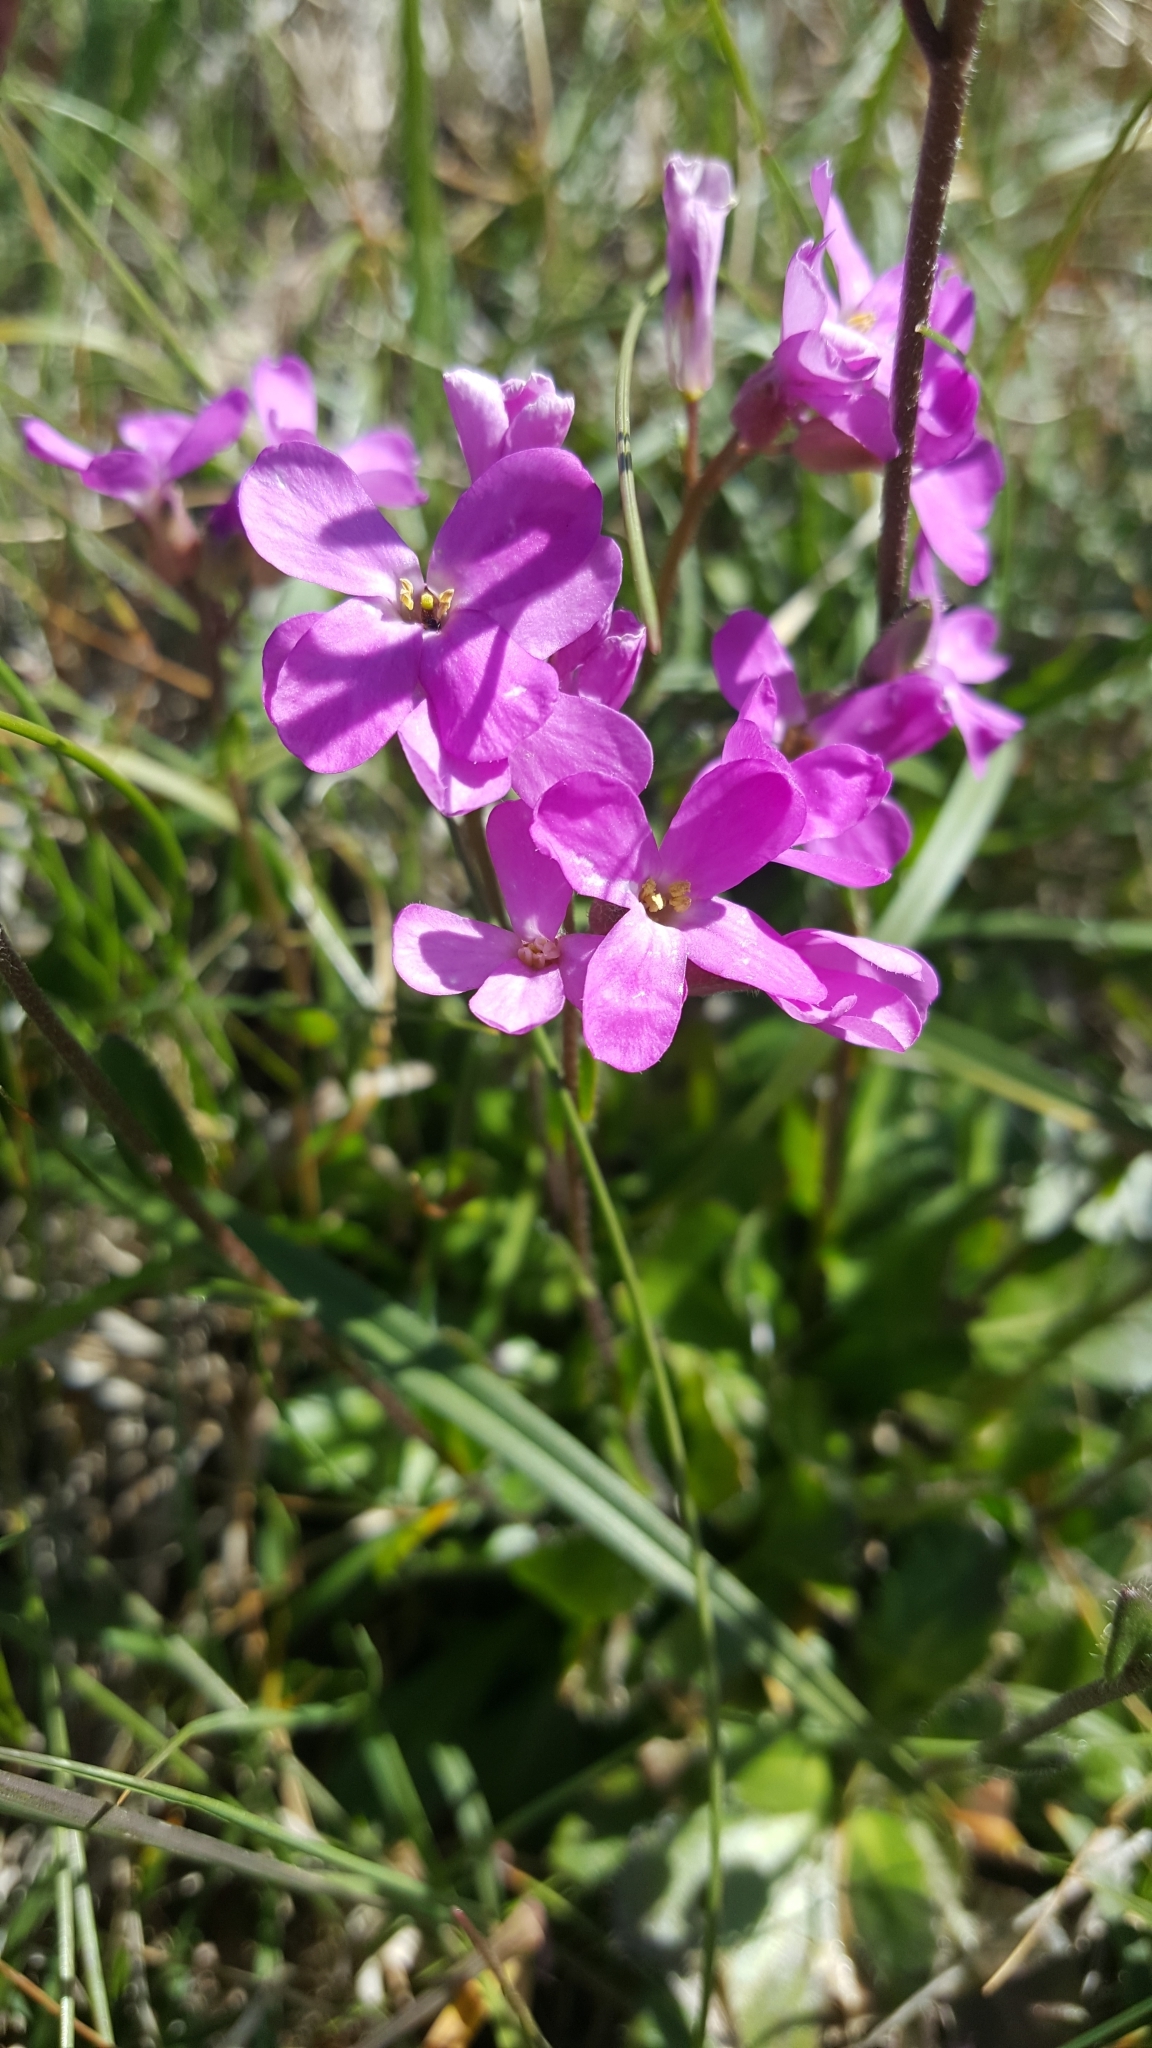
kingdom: Plantae
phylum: Tracheophyta
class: Magnoliopsida
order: Brassicales
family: Brassicaceae
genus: Arabis
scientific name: Arabis blepharophylla
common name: Rose rockcress
